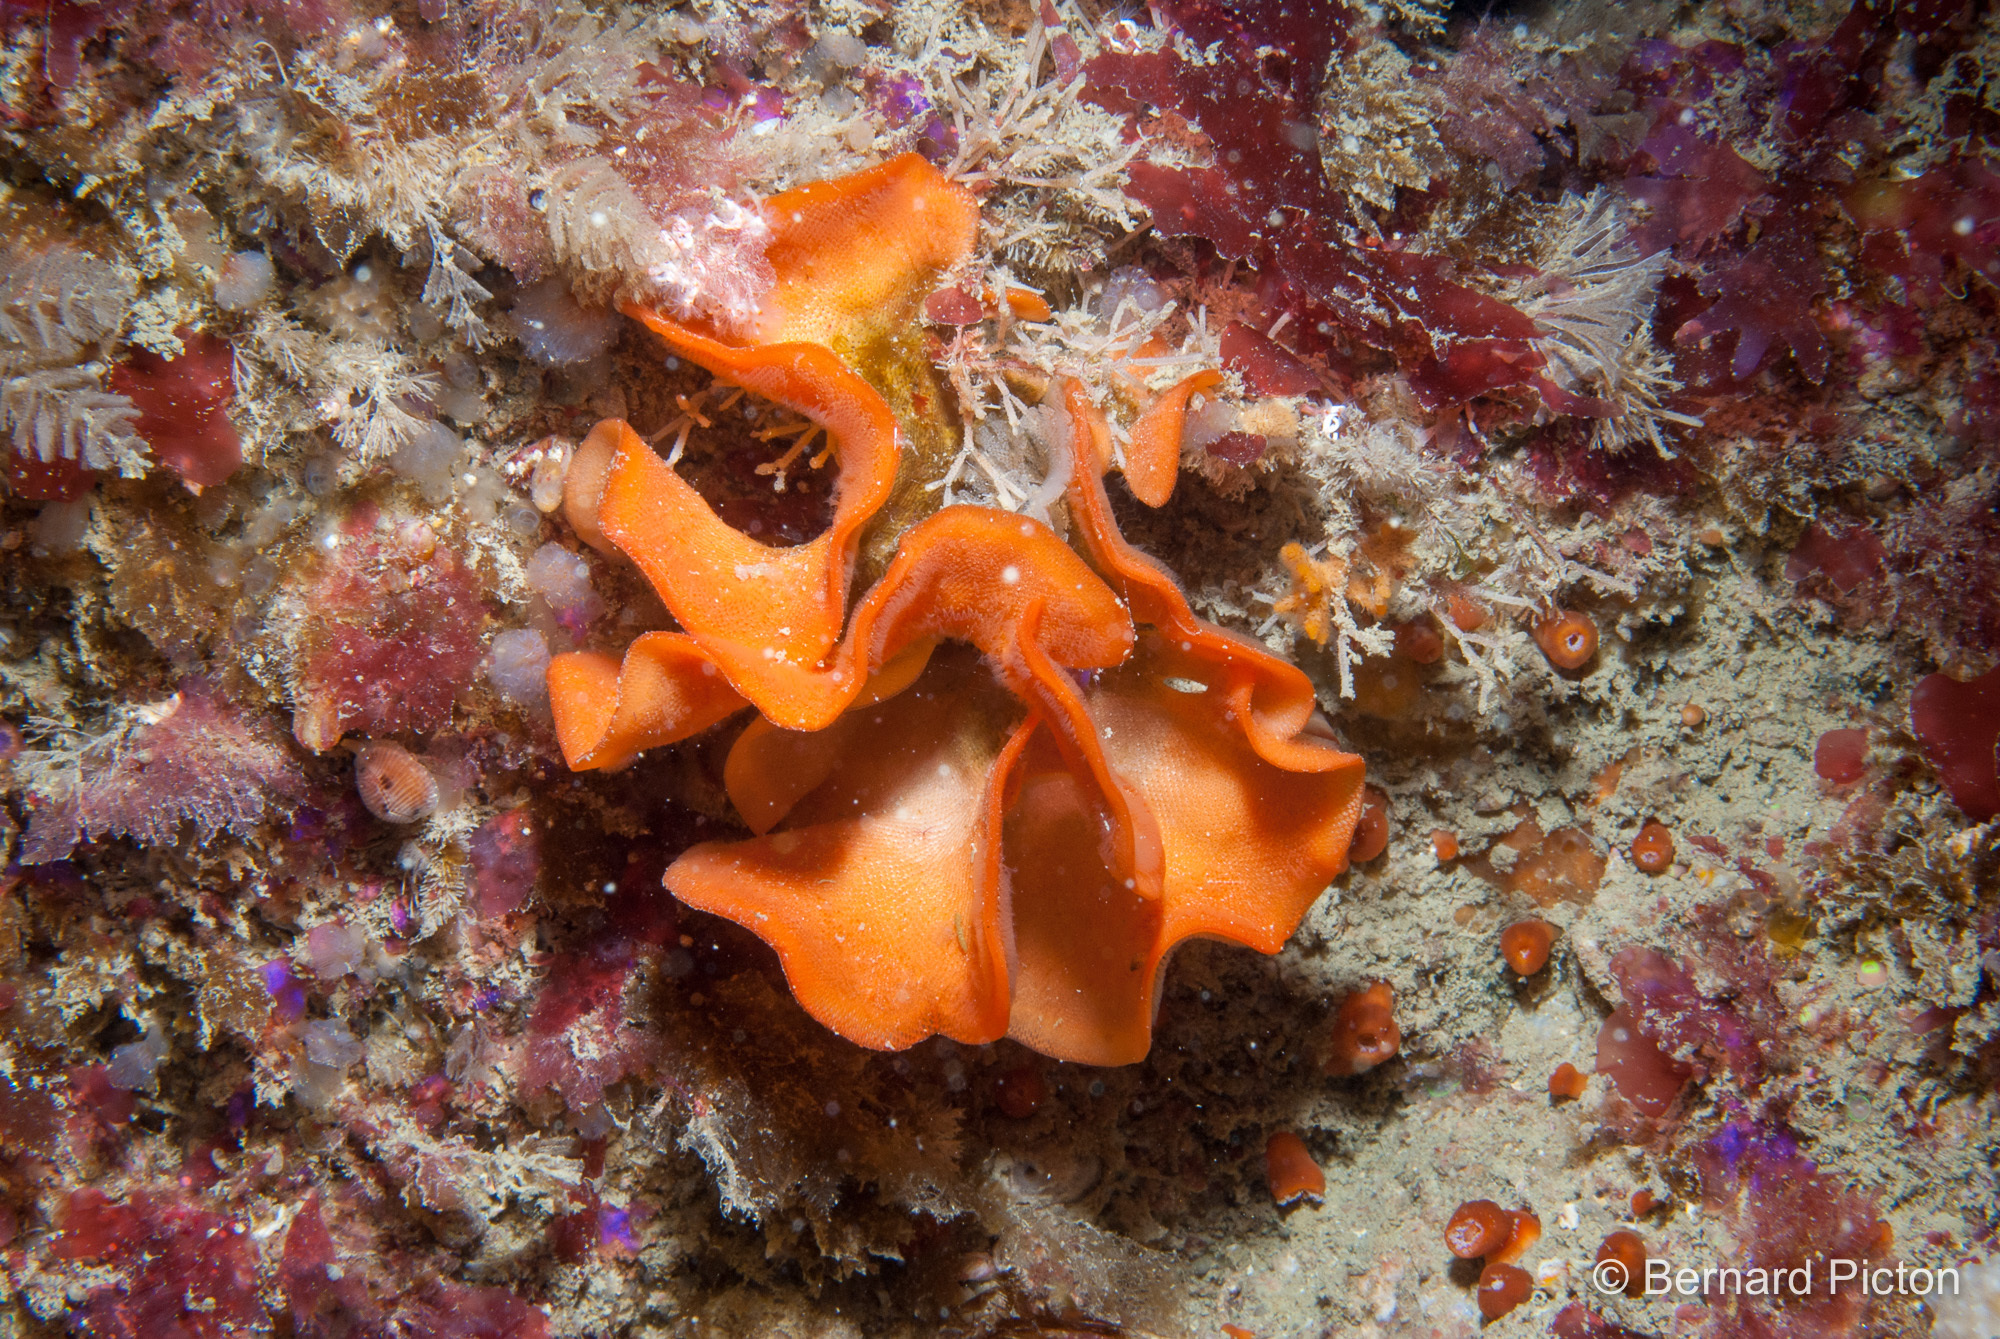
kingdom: Animalia
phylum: Bryozoa
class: Gymnolaemata
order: Cheilostomatida
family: Bitectiporidae
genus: Pentapora
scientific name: Pentapora foliacea
